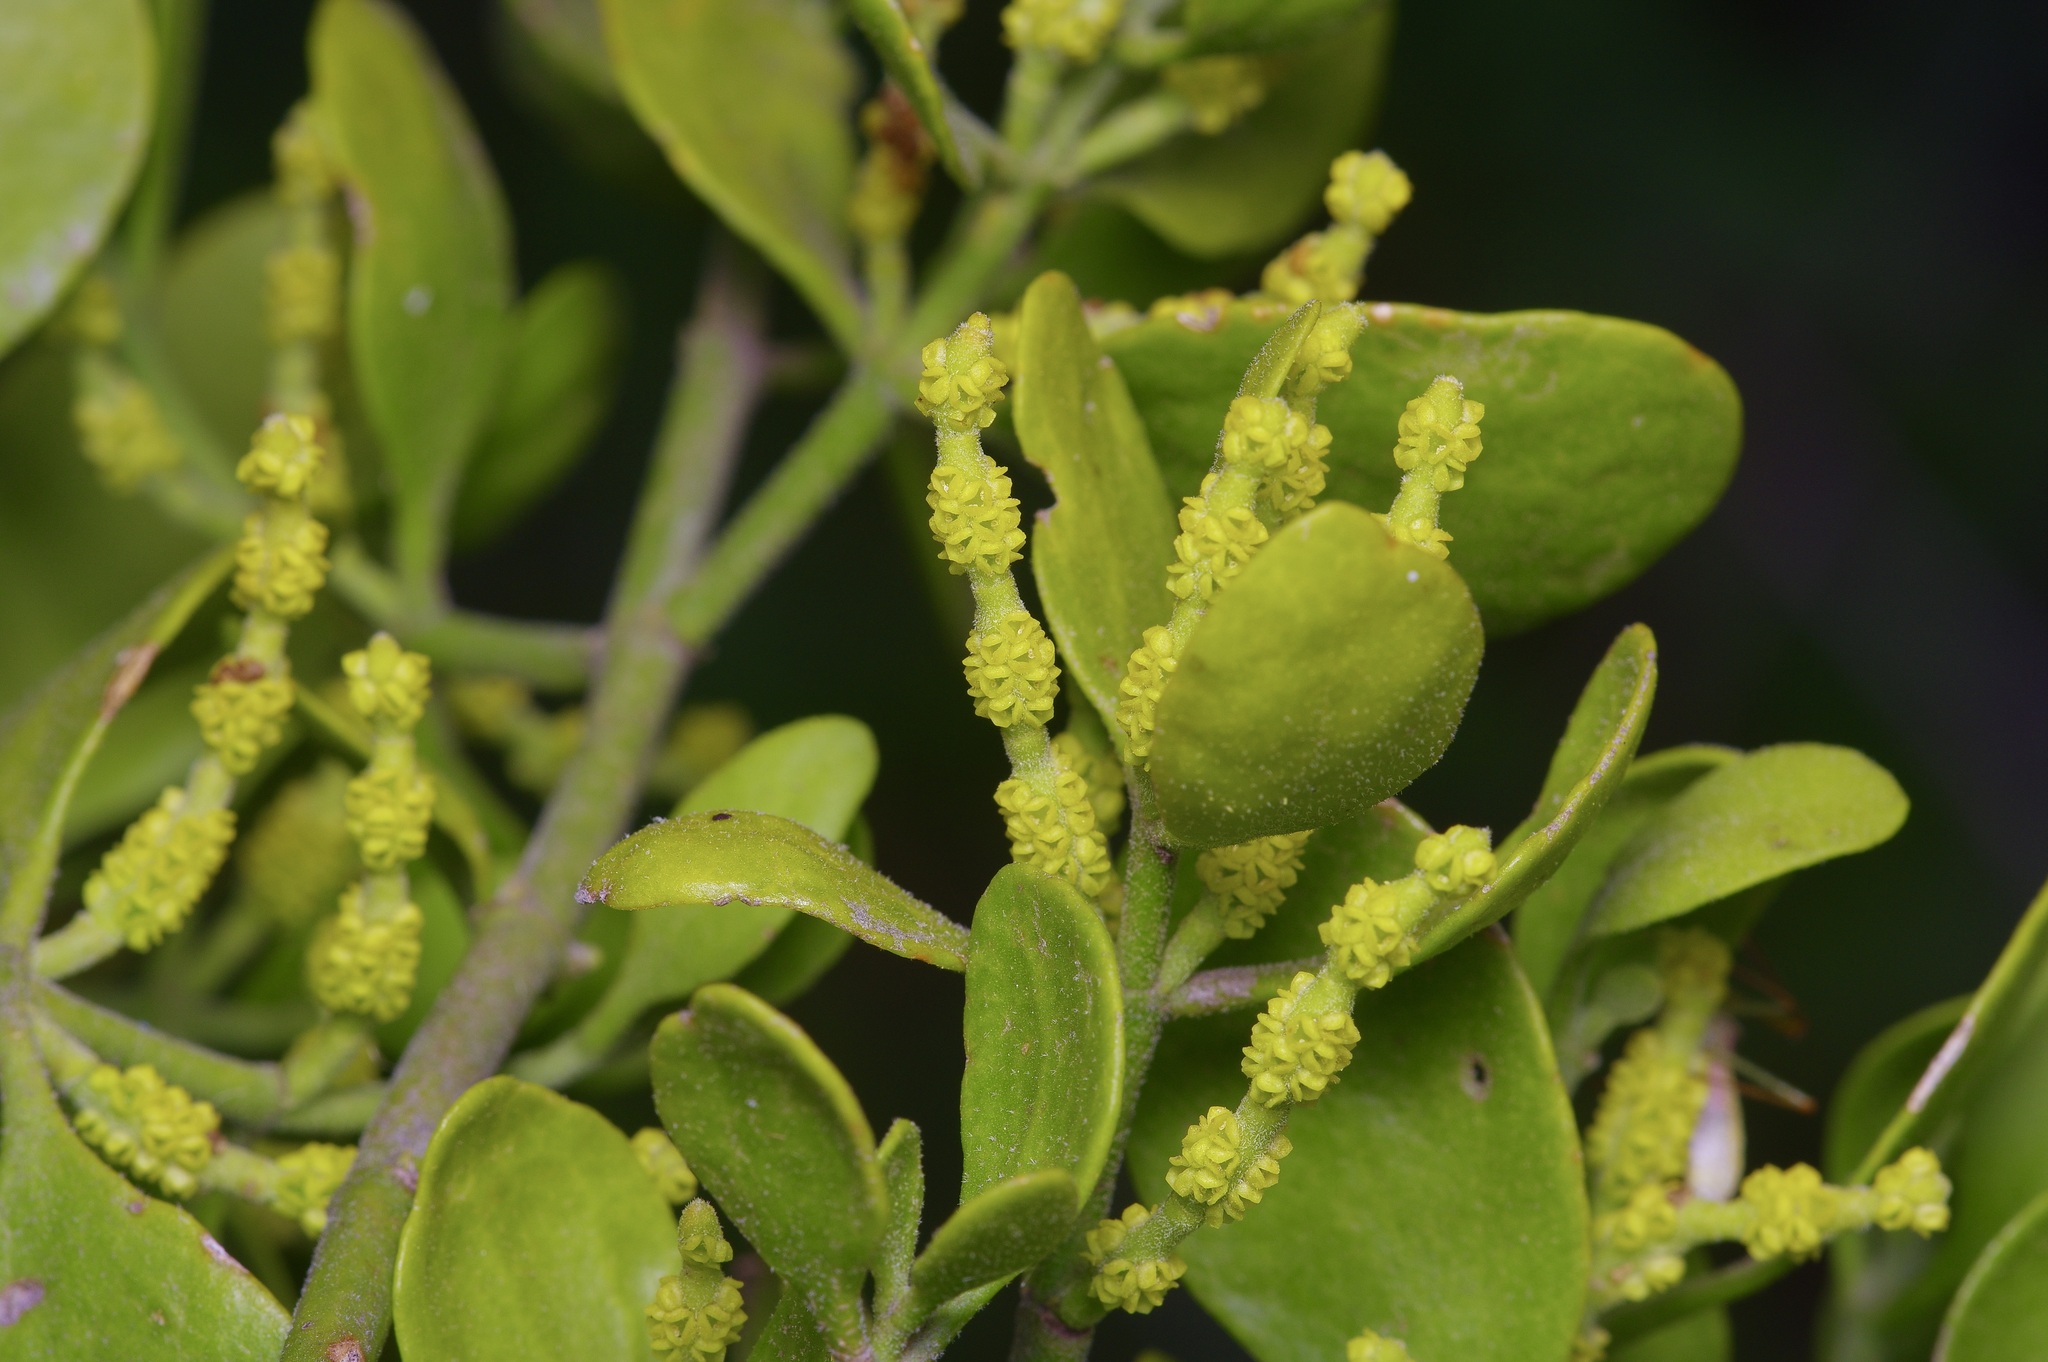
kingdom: Plantae
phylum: Tracheophyta
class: Magnoliopsida
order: Santalales
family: Viscaceae
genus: Phoradendron
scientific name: Phoradendron leucarpum
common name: Pacific mistletoe
